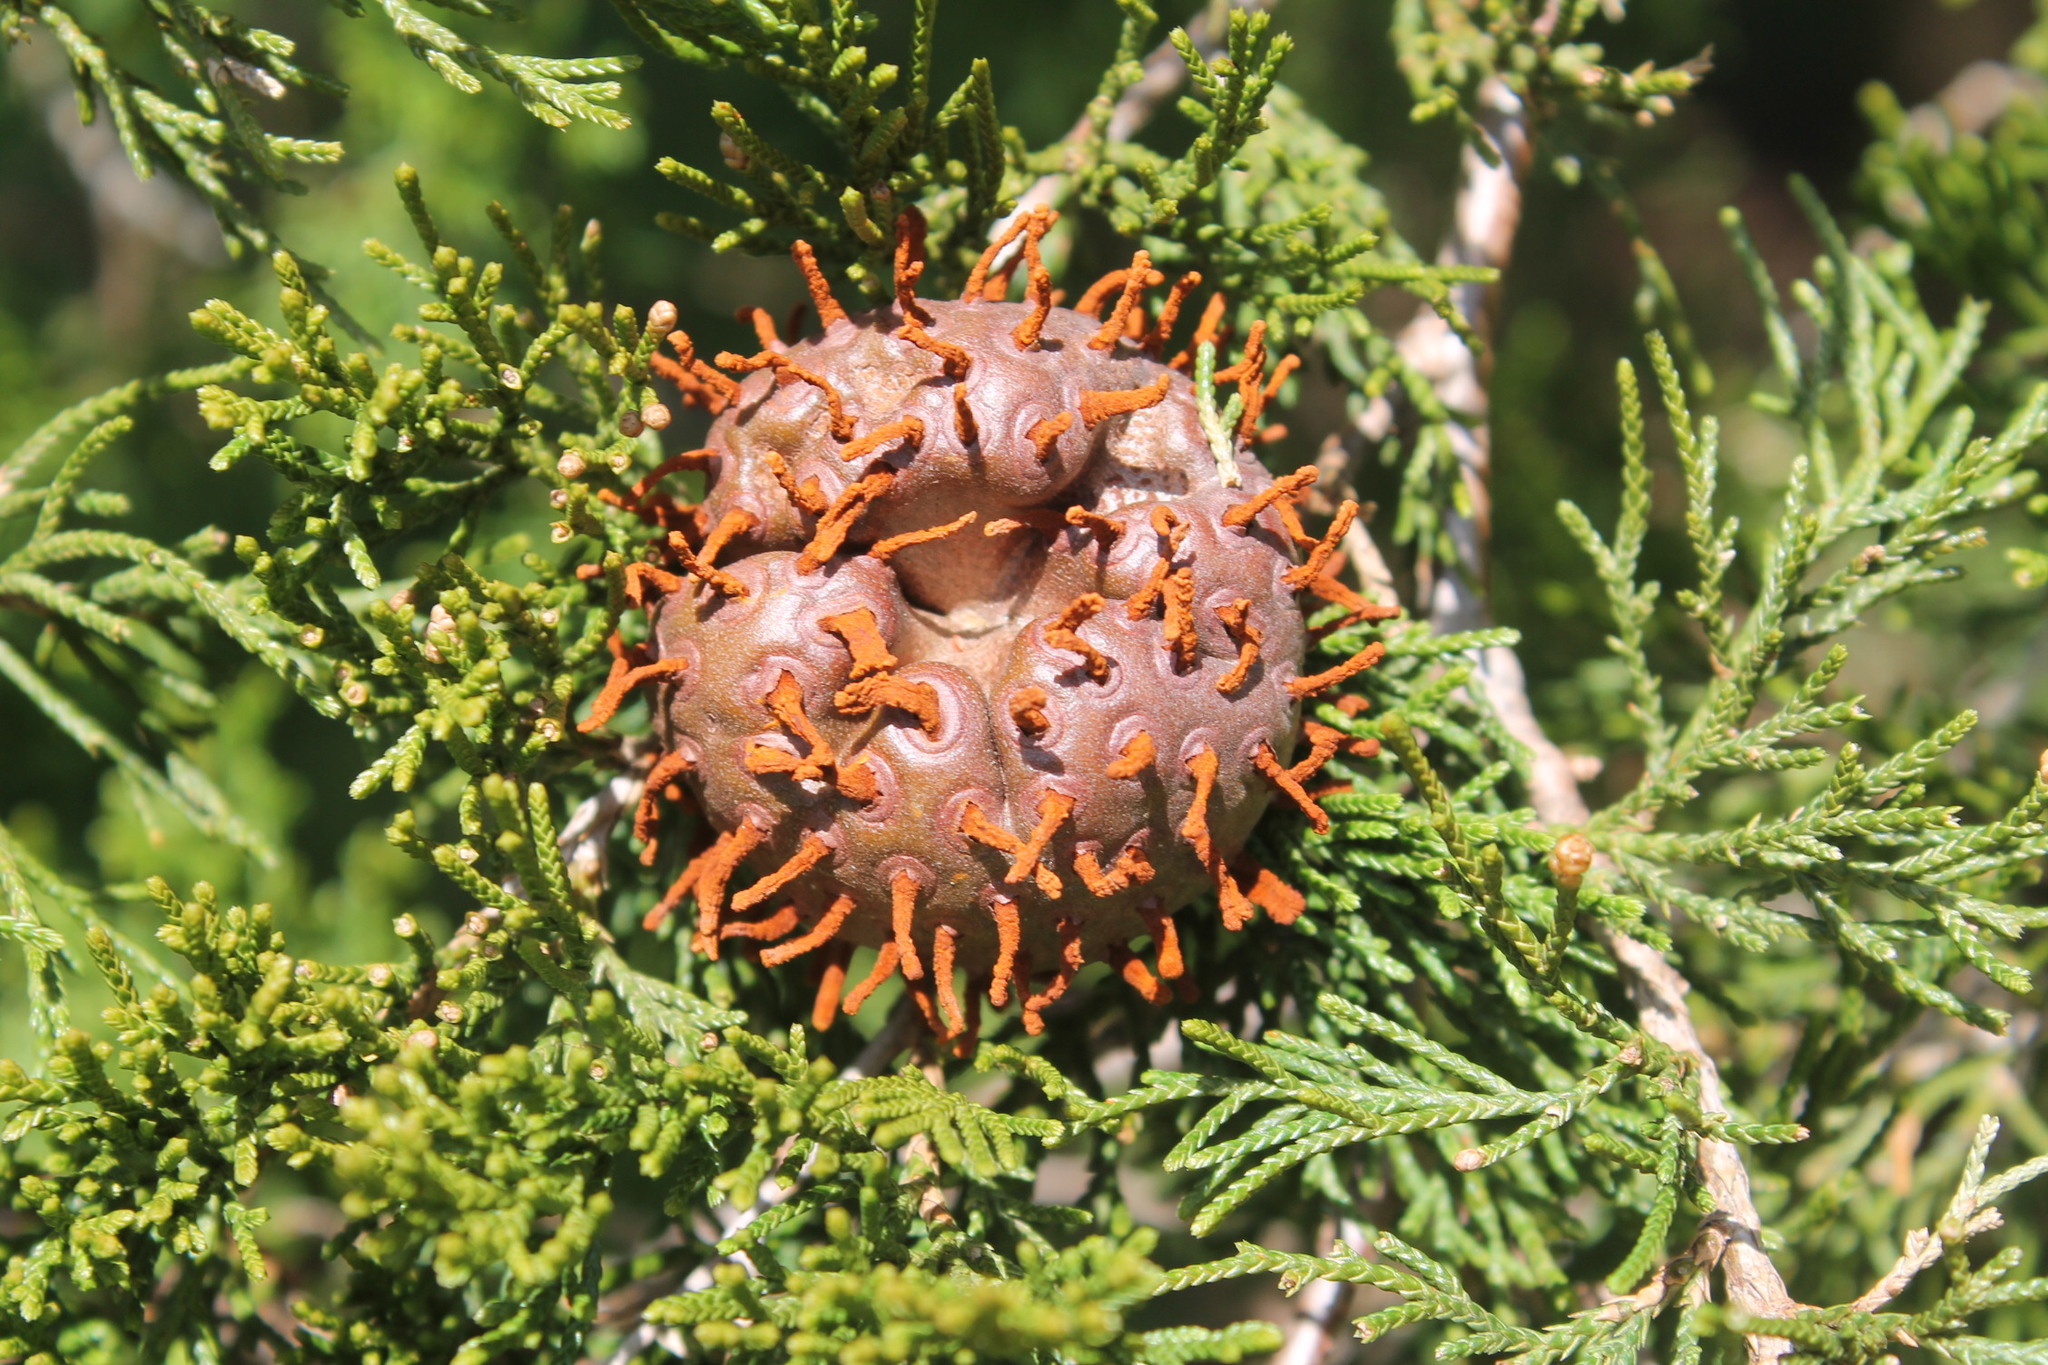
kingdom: Fungi
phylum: Basidiomycota
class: Pucciniomycetes
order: Pucciniales
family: Gymnosporangiaceae
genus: Gymnosporangium
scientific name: Gymnosporangium juniperi-virginianae
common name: Juniper-apple rust
